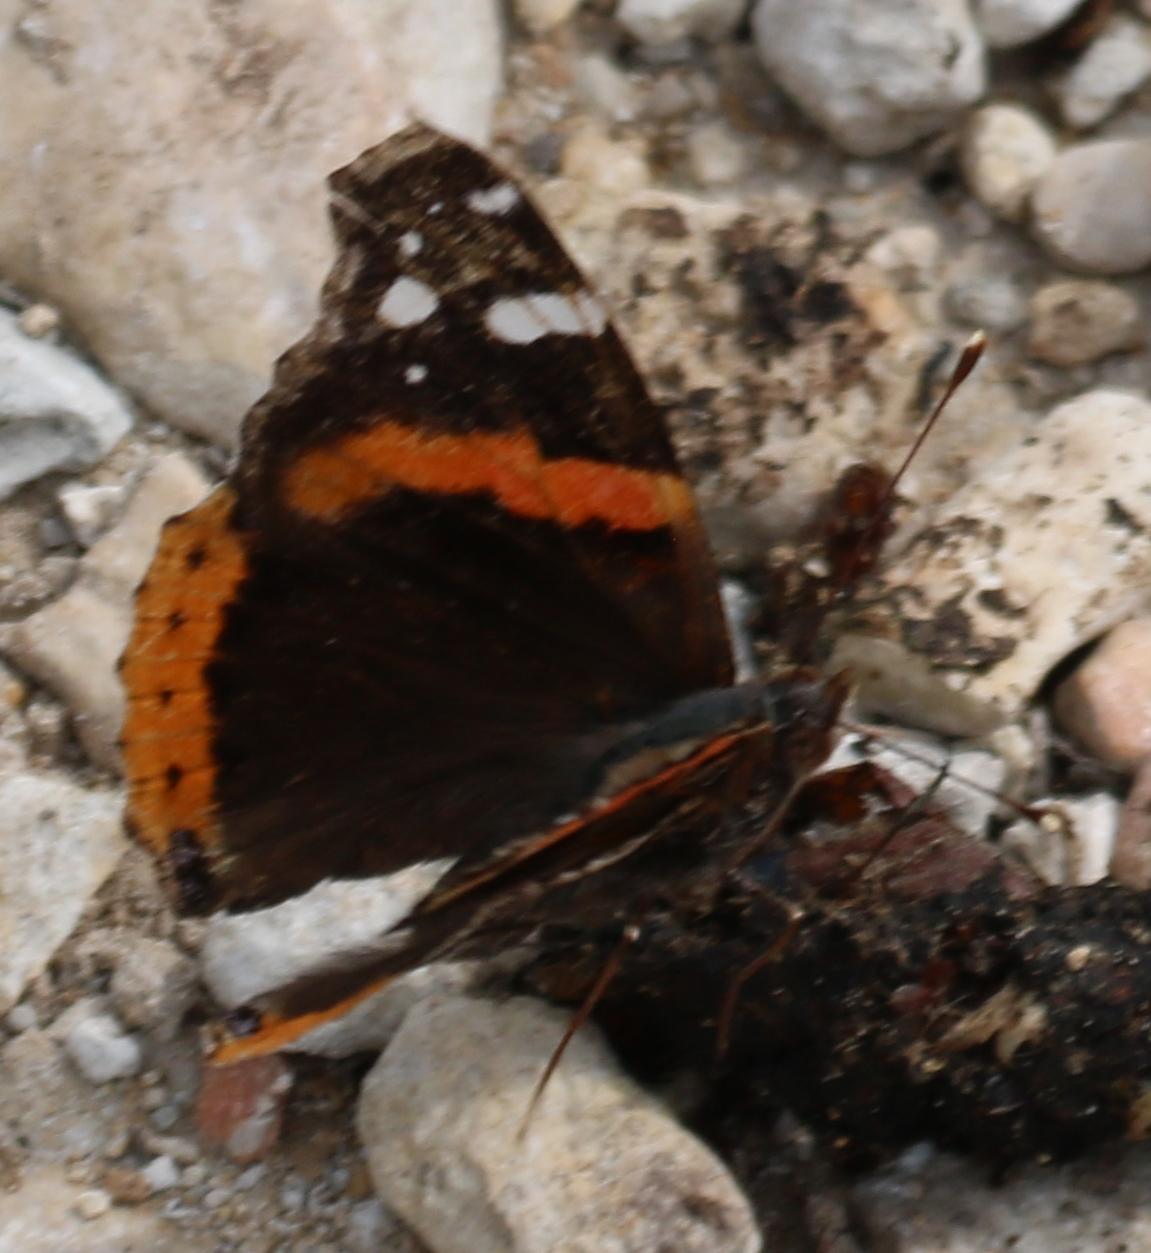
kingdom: Animalia
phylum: Arthropoda
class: Insecta
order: Lepidoptera
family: Nymphalidae
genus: Vanessa
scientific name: Vanessa atalanta
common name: Red admiral
